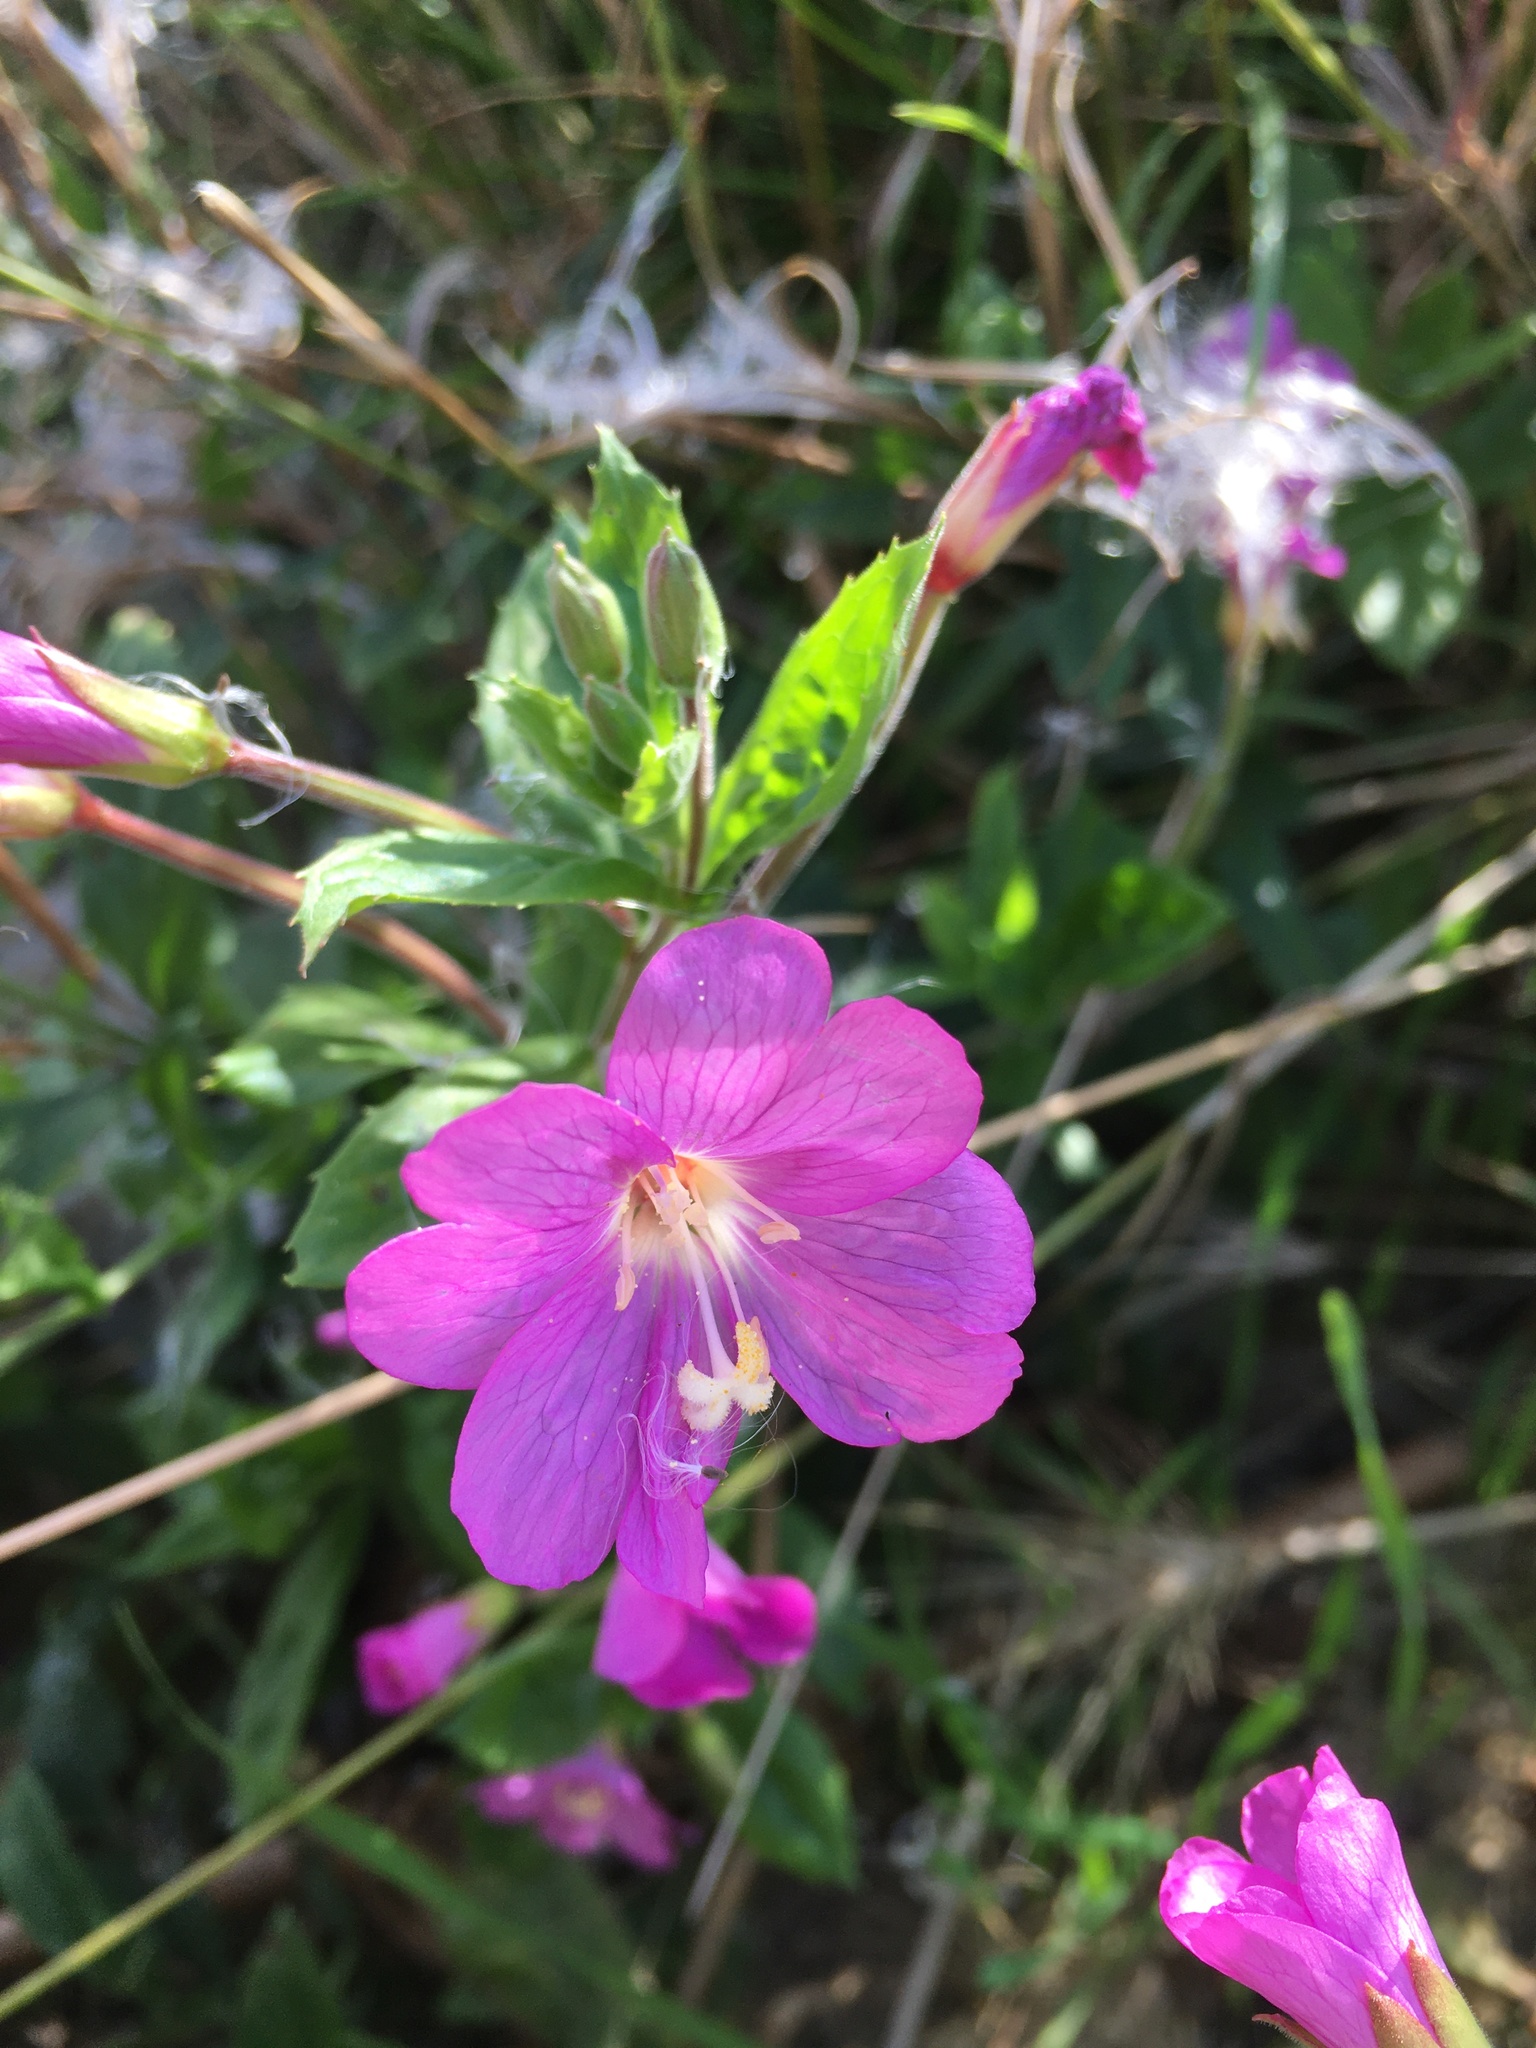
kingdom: Plantae
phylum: Tracheophyta
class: Magnoliopsida
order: Myrtales
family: Onagraceae
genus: Epilobium
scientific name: Epilobium hirsutum
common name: Great willowherb
